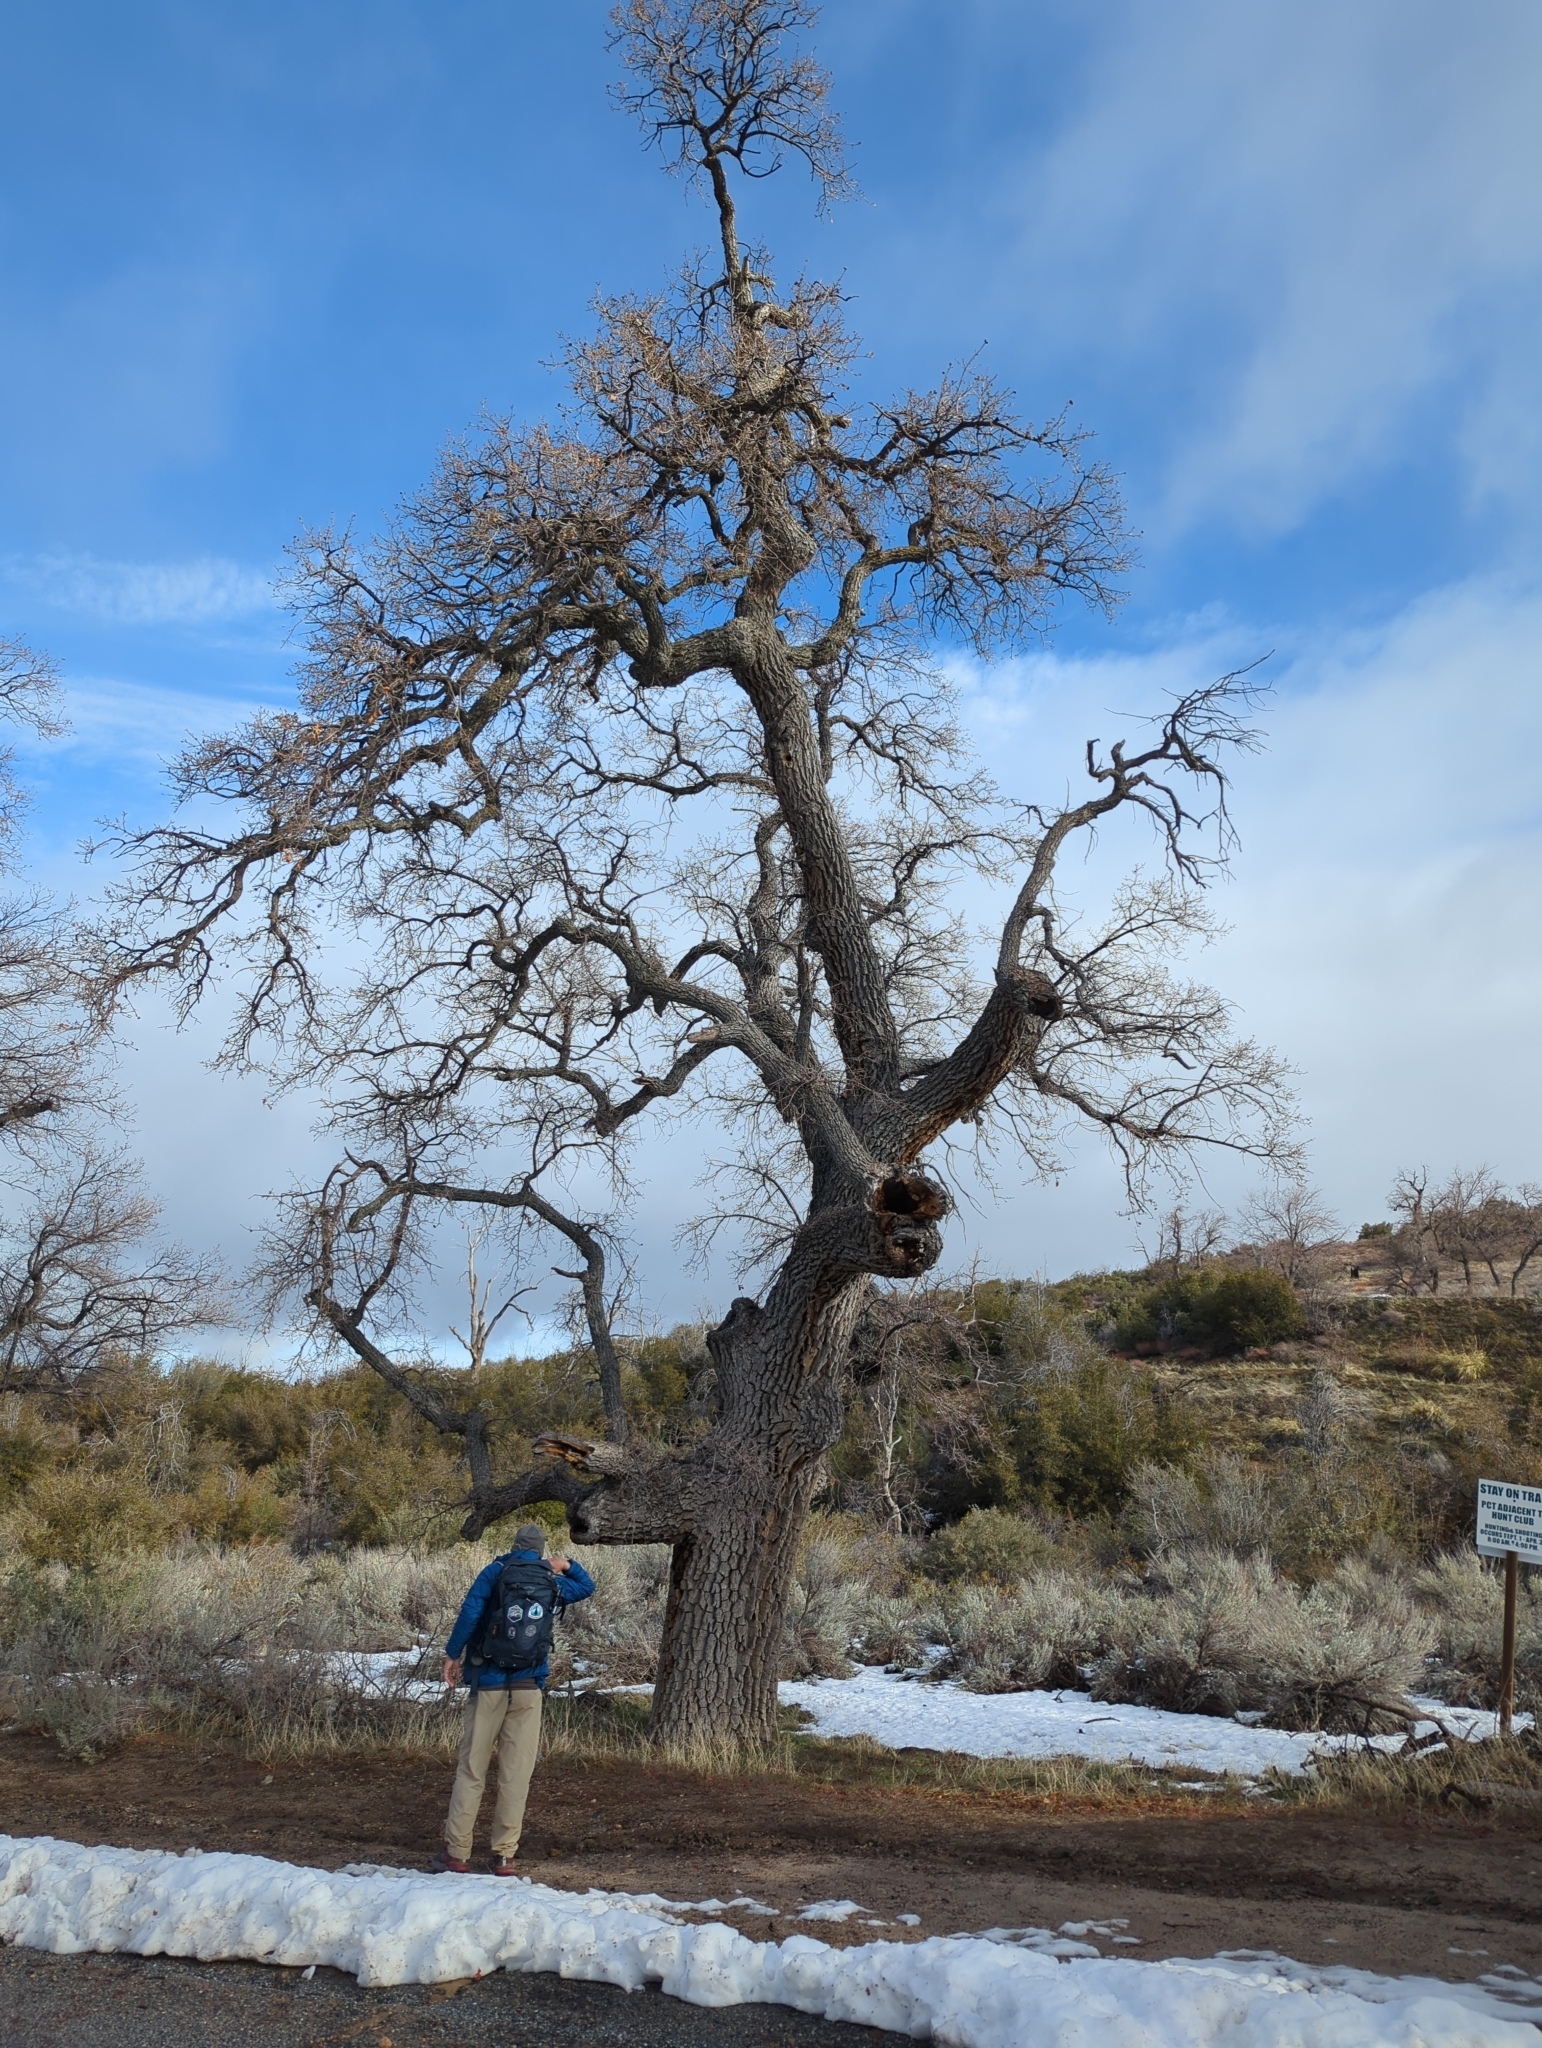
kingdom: Plantae
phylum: Tracheophyta
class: Magnoliopsida
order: Fagales
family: Fagaceae
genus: Quercus
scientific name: Quercus lobata
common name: Valley oak
